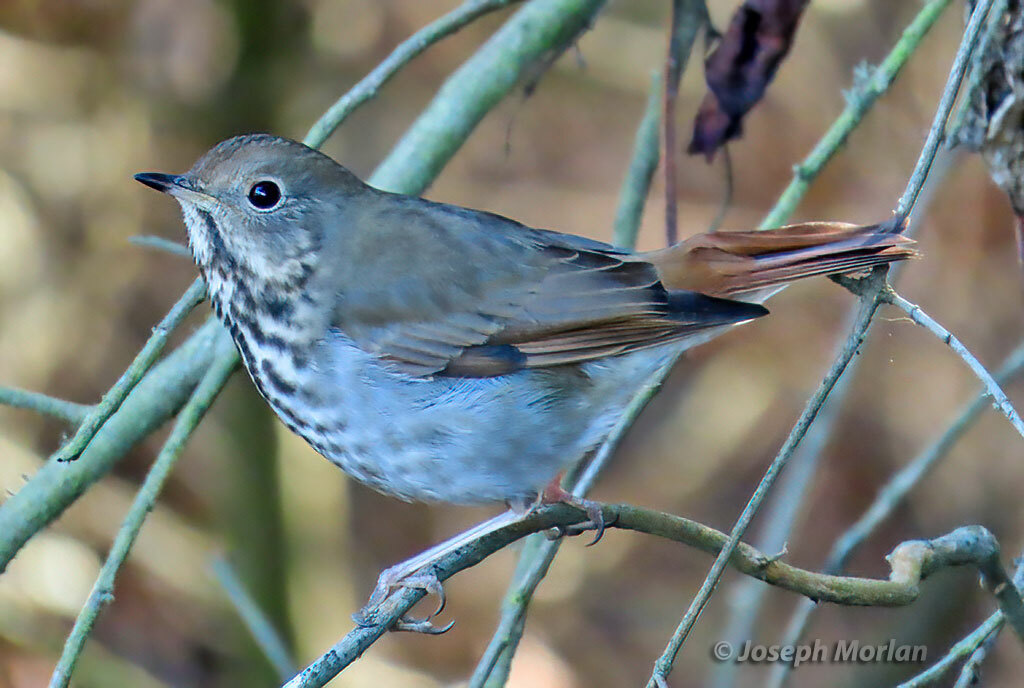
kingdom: Animalia
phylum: Chordata
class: Aves
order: Passeriformes
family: Turdidae
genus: Catharus
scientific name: Catharus guttatus
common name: Hermit thrush
